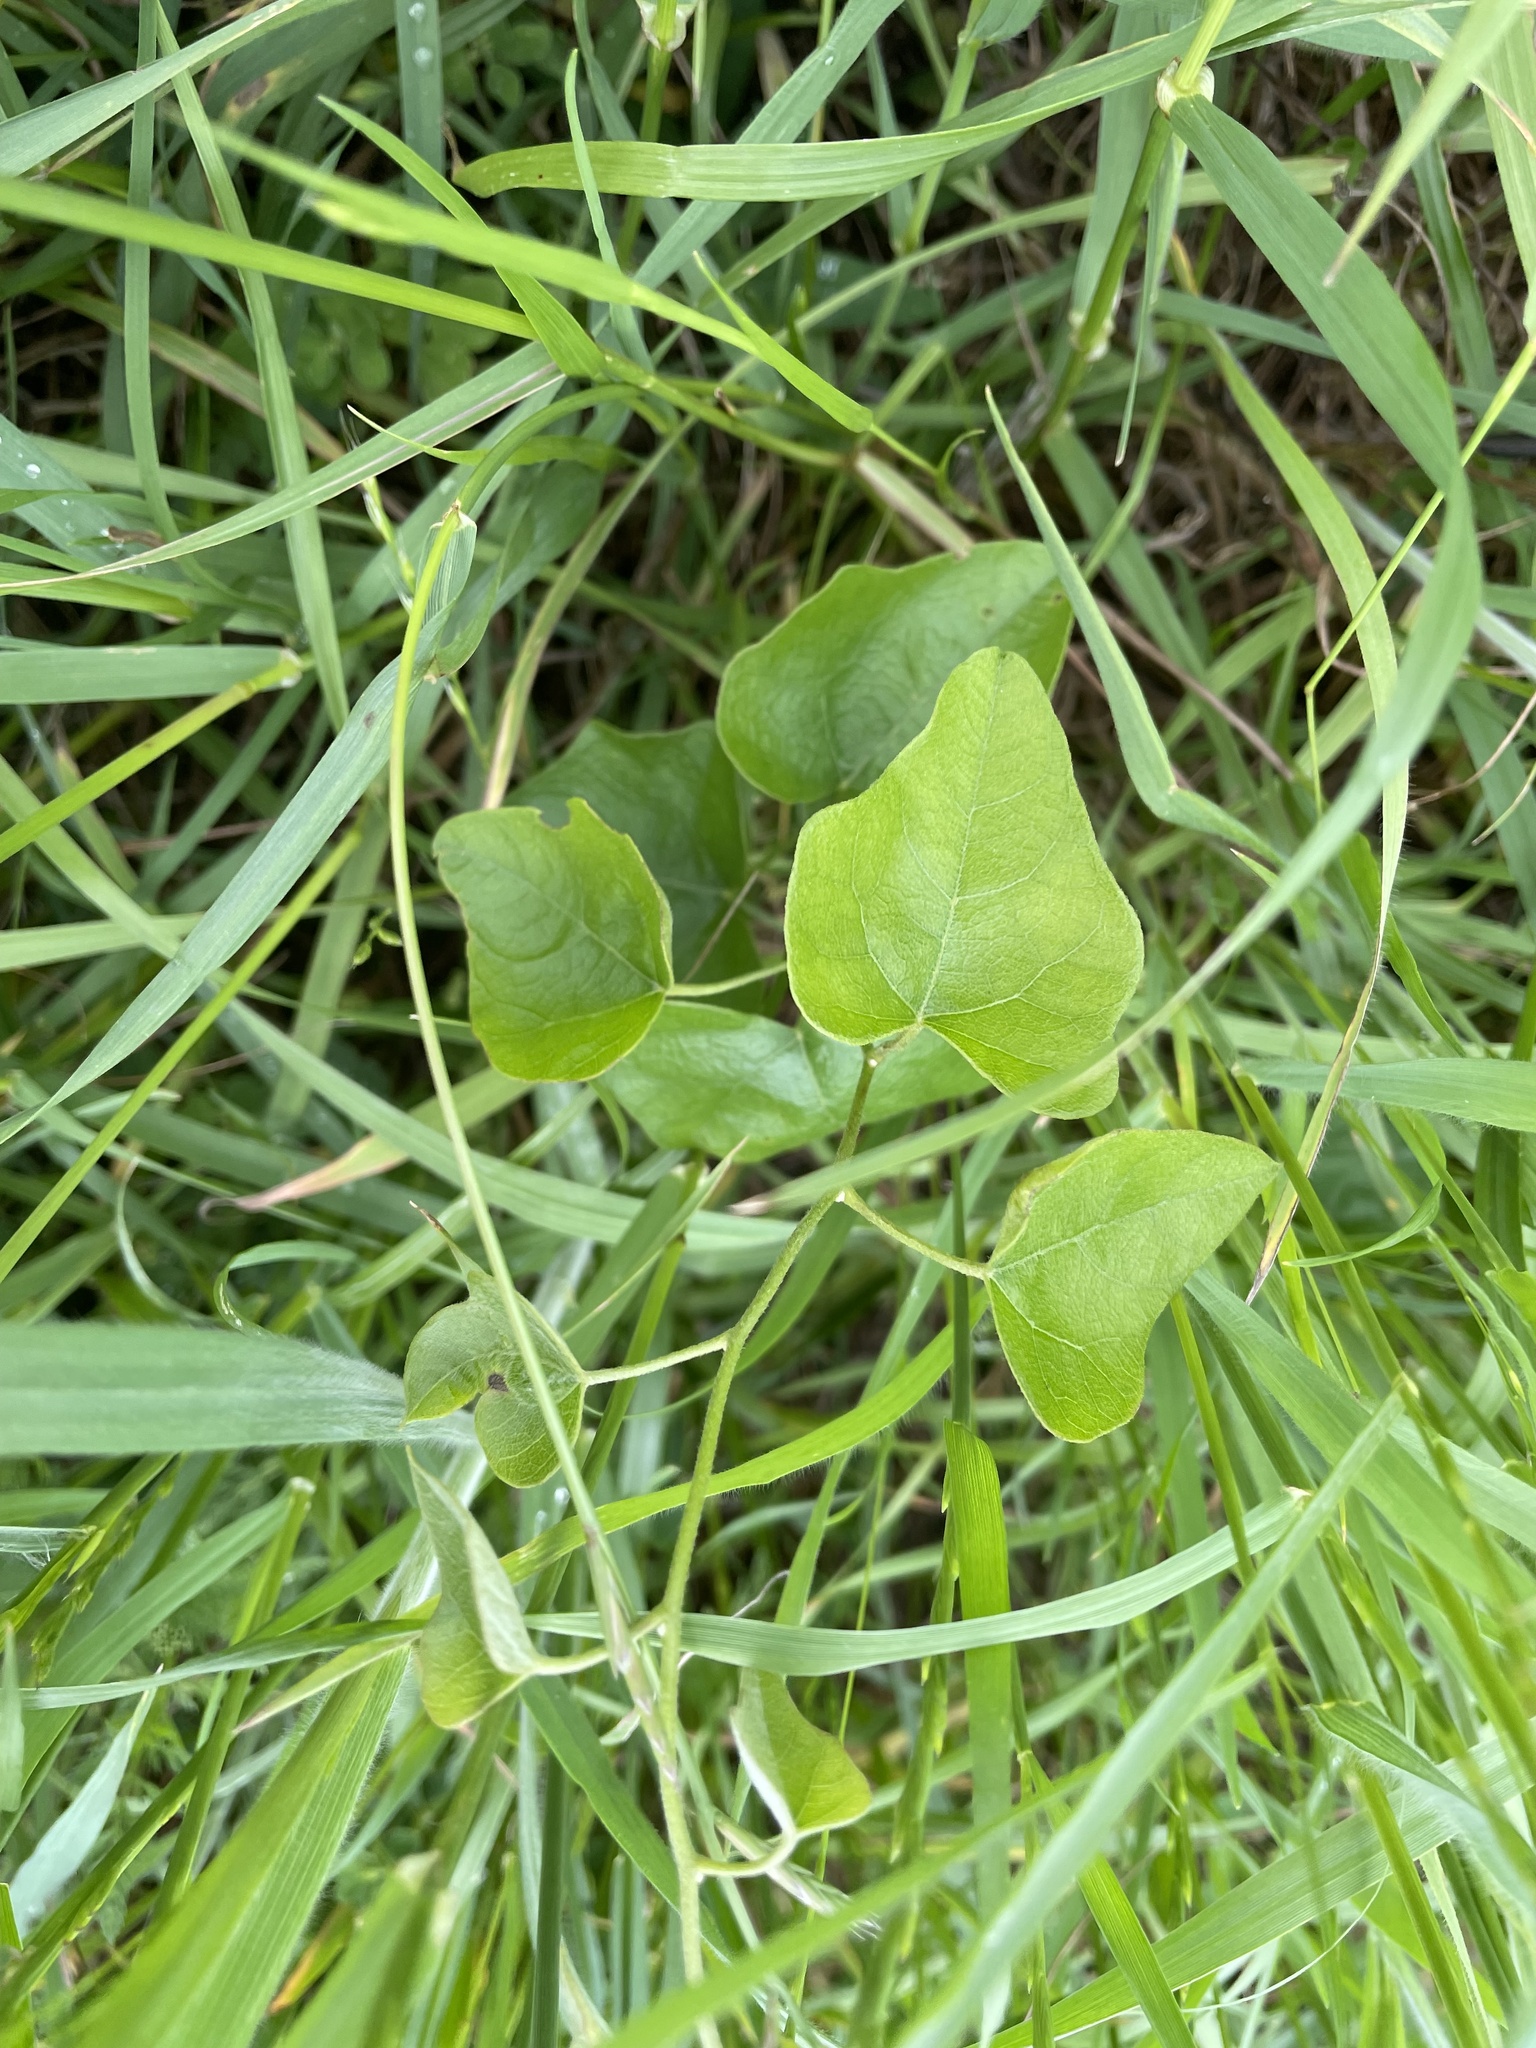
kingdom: Plantae
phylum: Tracheophyta
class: Magnoliopsida
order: Ranunculales
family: Menispermaceae
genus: Cocculus
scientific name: Cocculus carolinus
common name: Carolina moonseed
